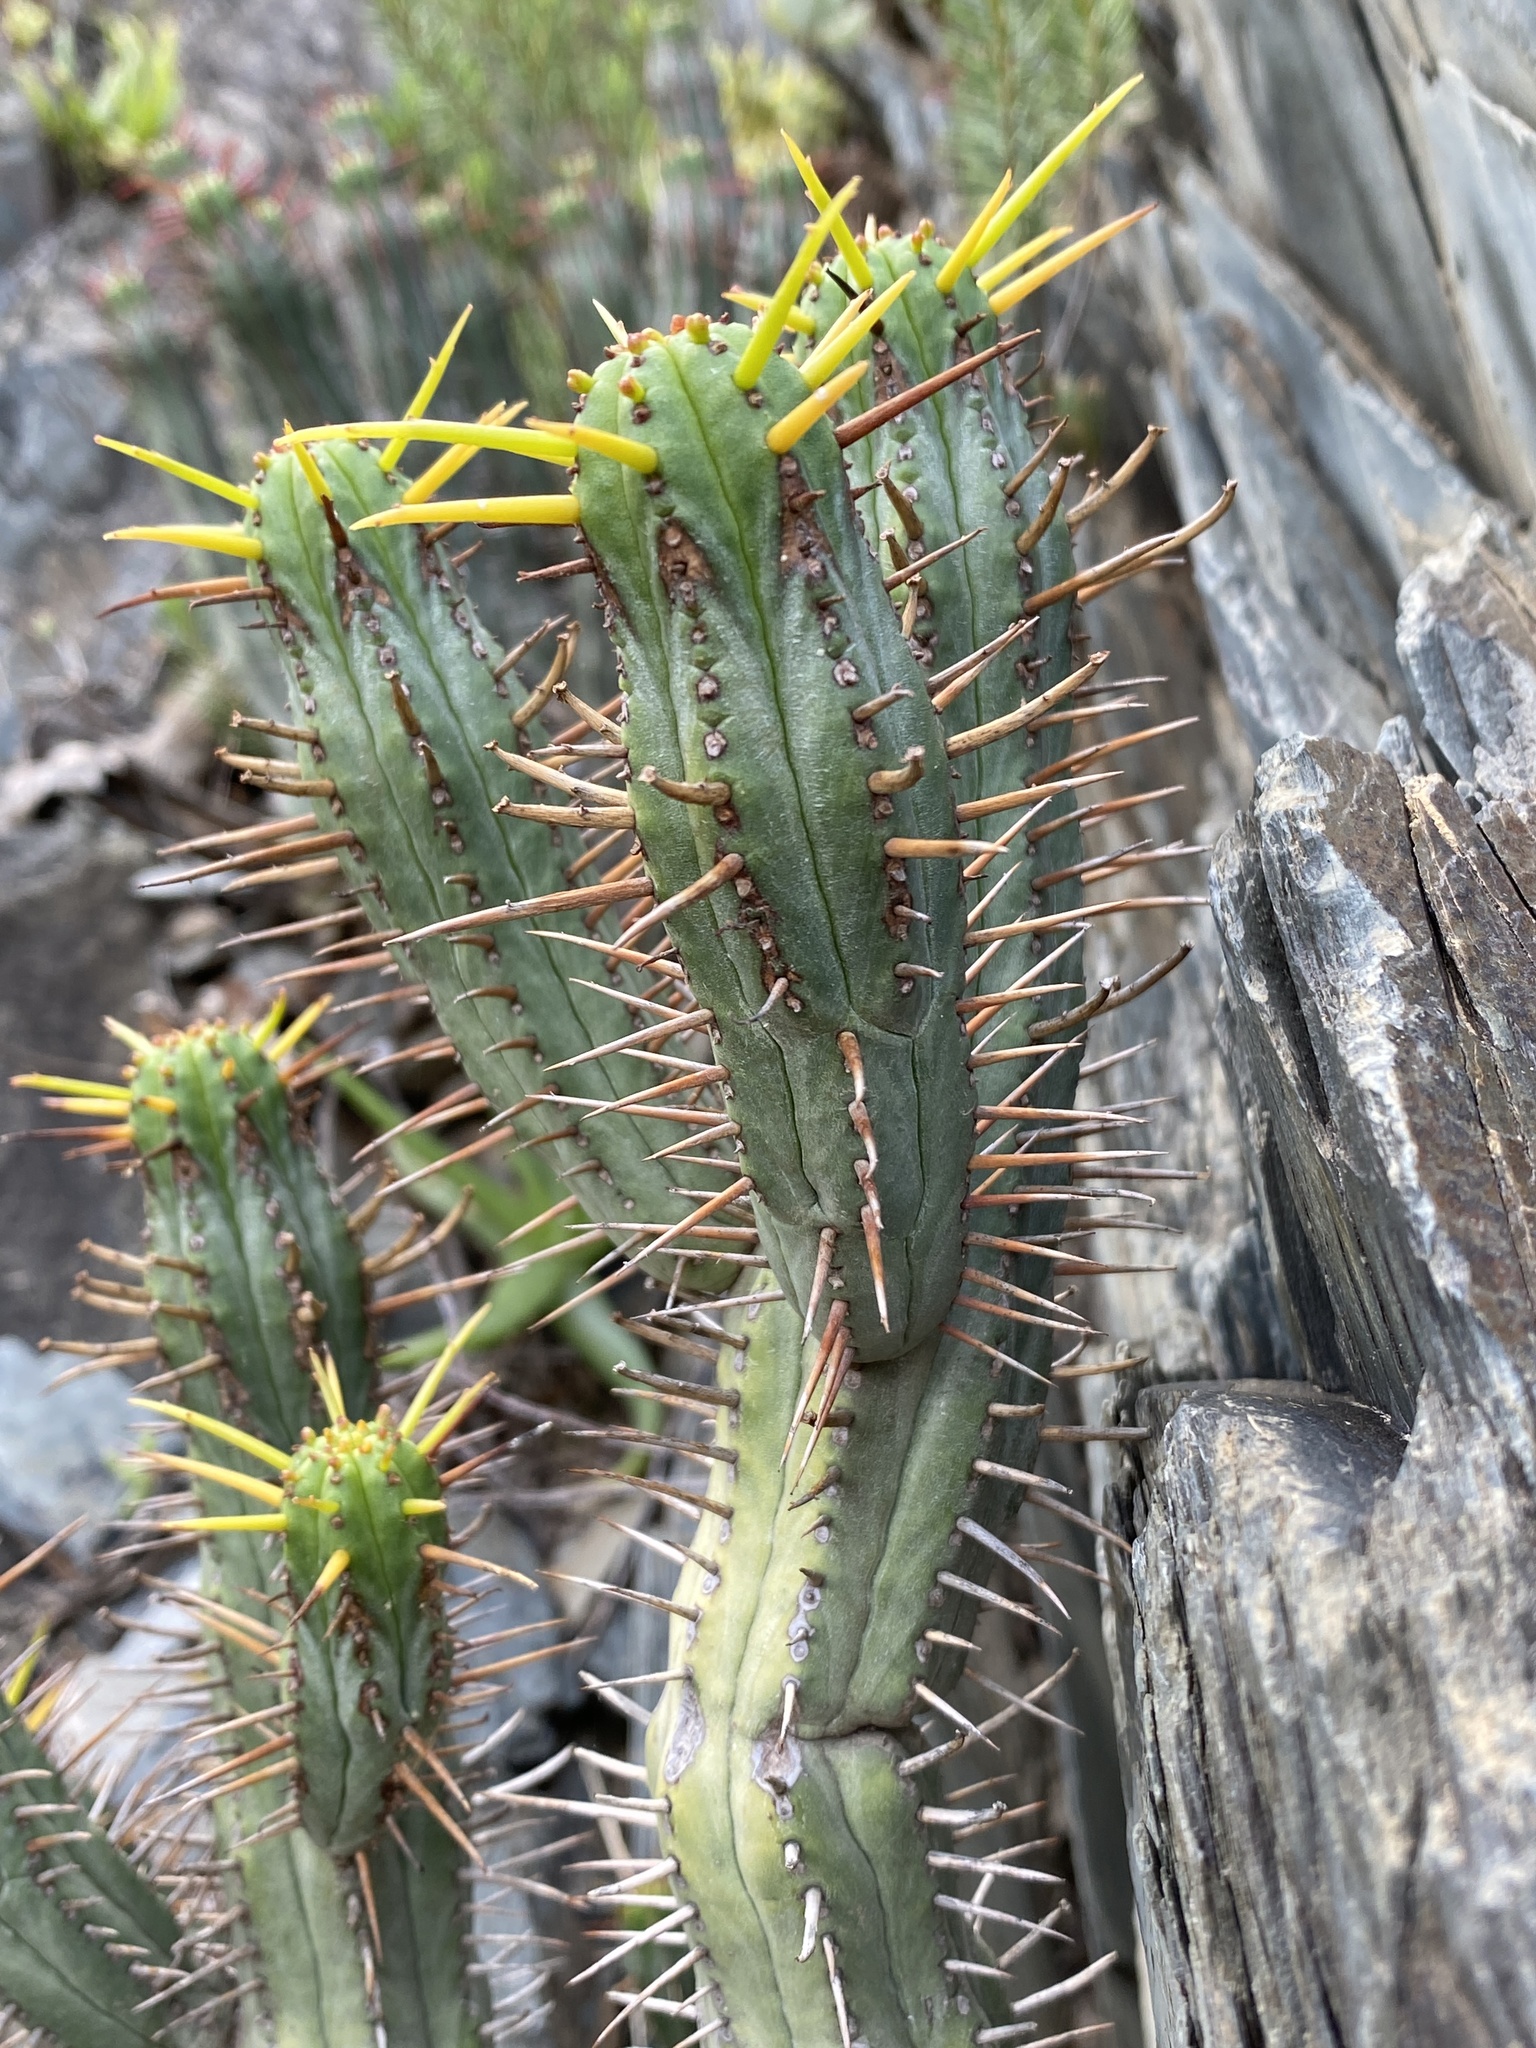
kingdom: Plantae
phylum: Tracheophyta
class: Magnoliopsida
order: Malpighiales
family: Euphorbiaceae
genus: Euphorbia
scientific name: Euphorbia heptagona
